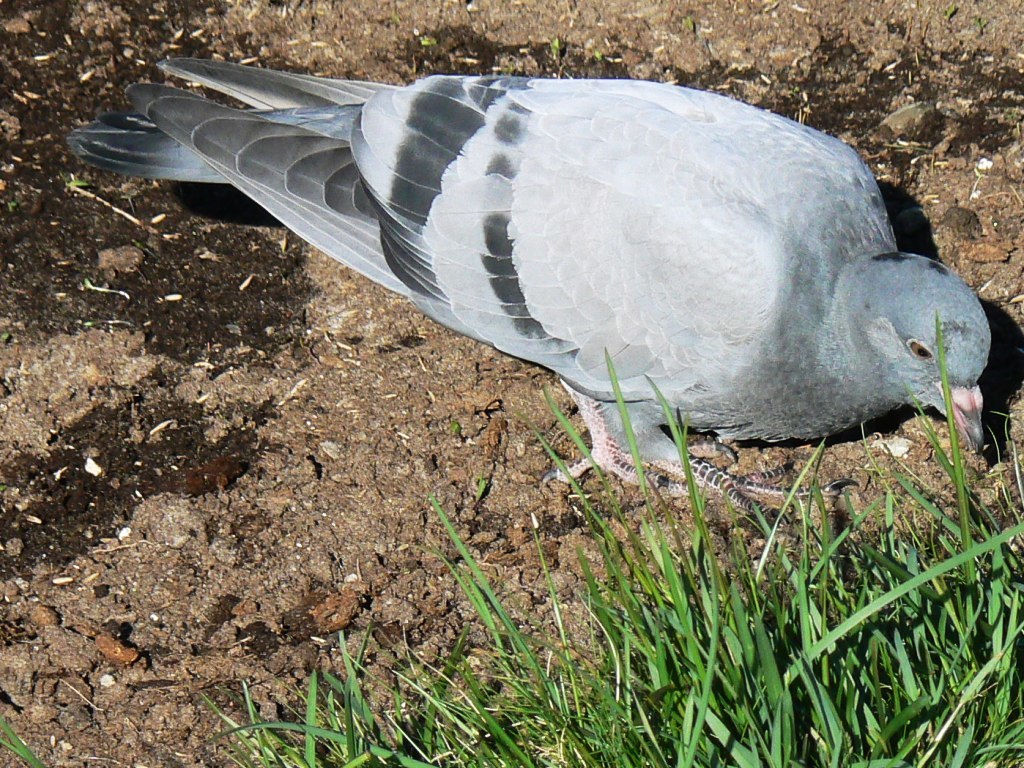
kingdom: Animalia
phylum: Chordata
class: Aves
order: Columbiformes
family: Columbidae
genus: Columba
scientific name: Columba livia
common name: Rock pigeon
